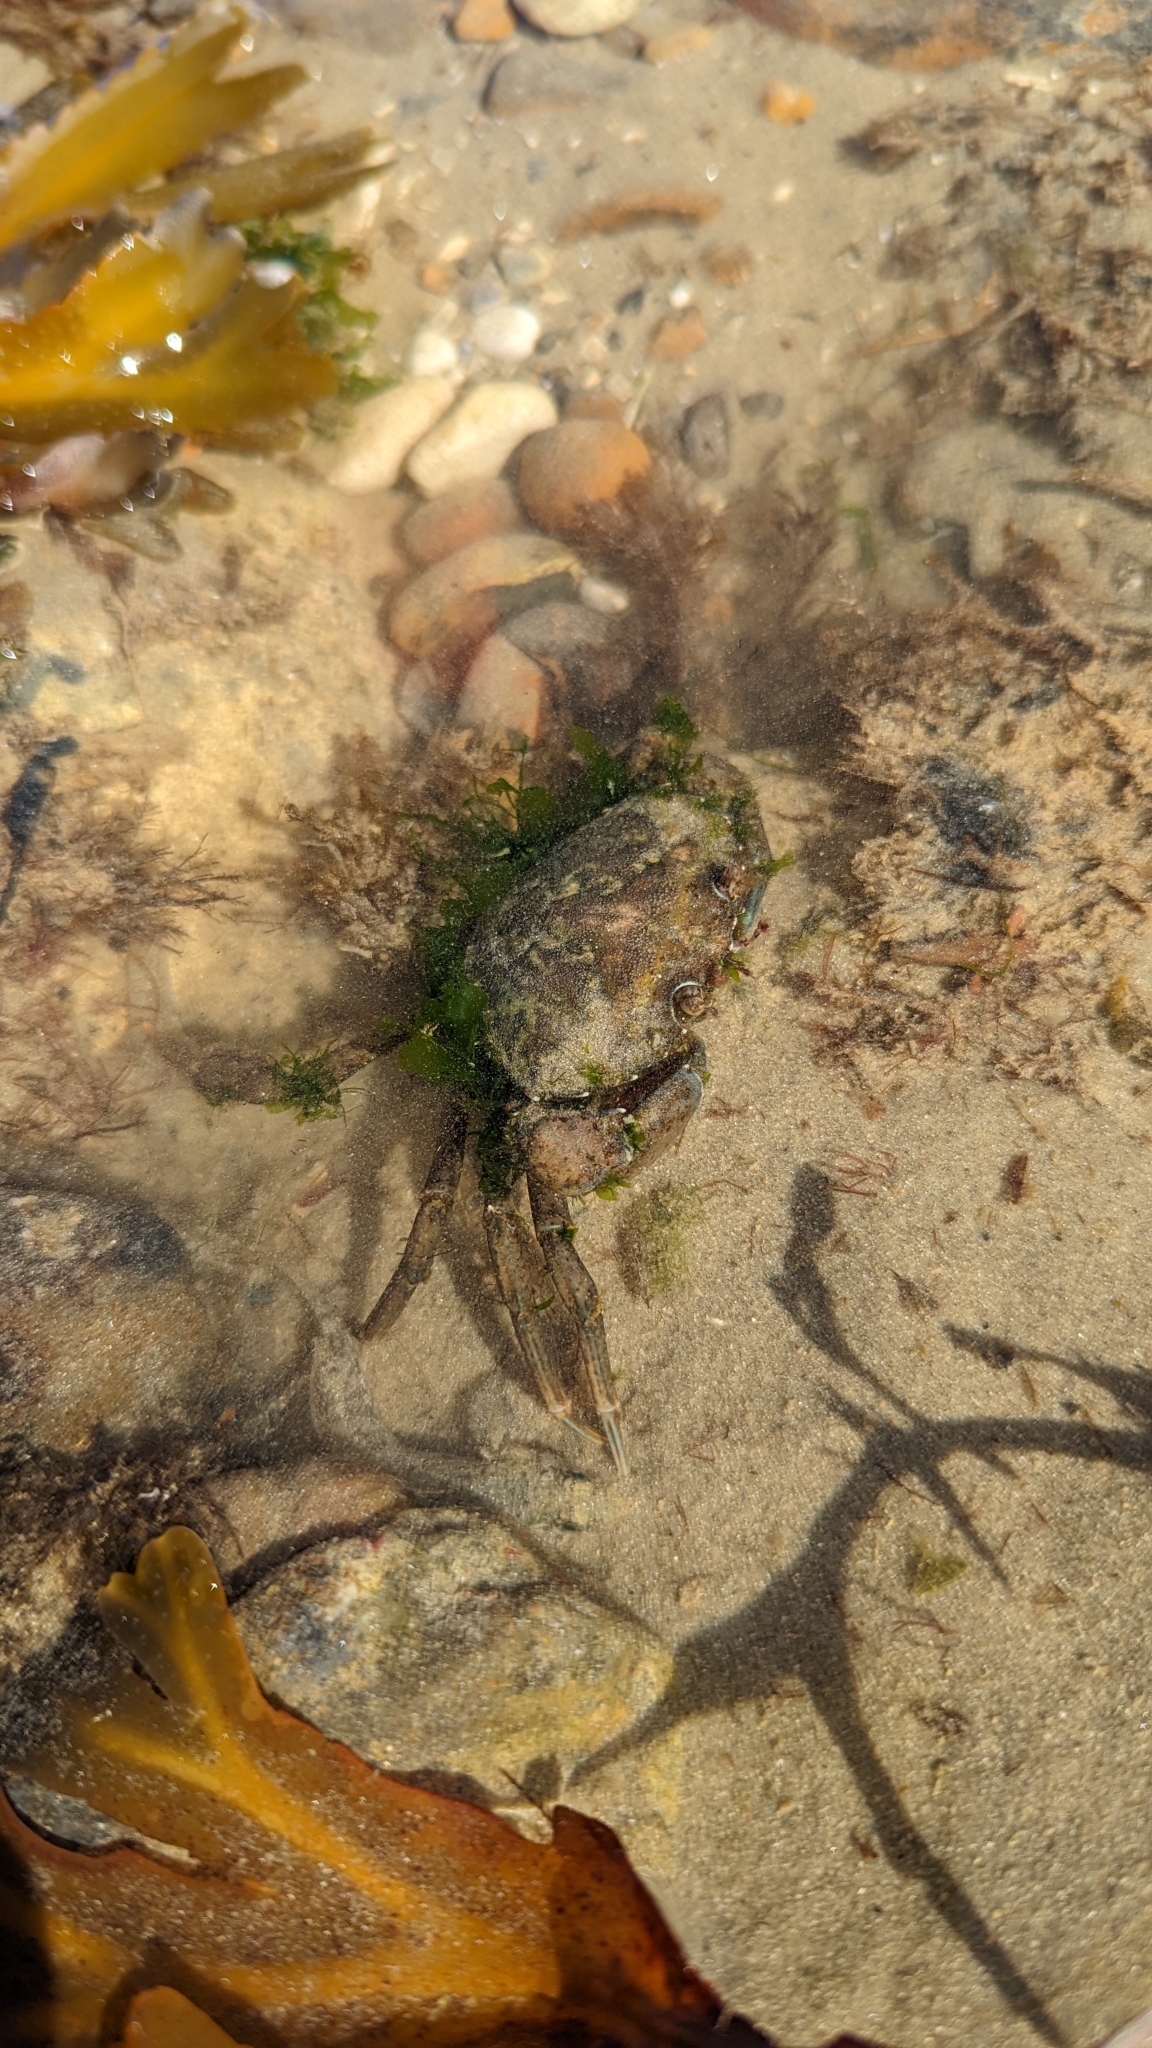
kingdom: Animalia
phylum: Arthropoda
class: Malacostraca
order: Decapoda
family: Carcinidae
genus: Carcinus
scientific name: Carcinus maenas
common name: European green crab
